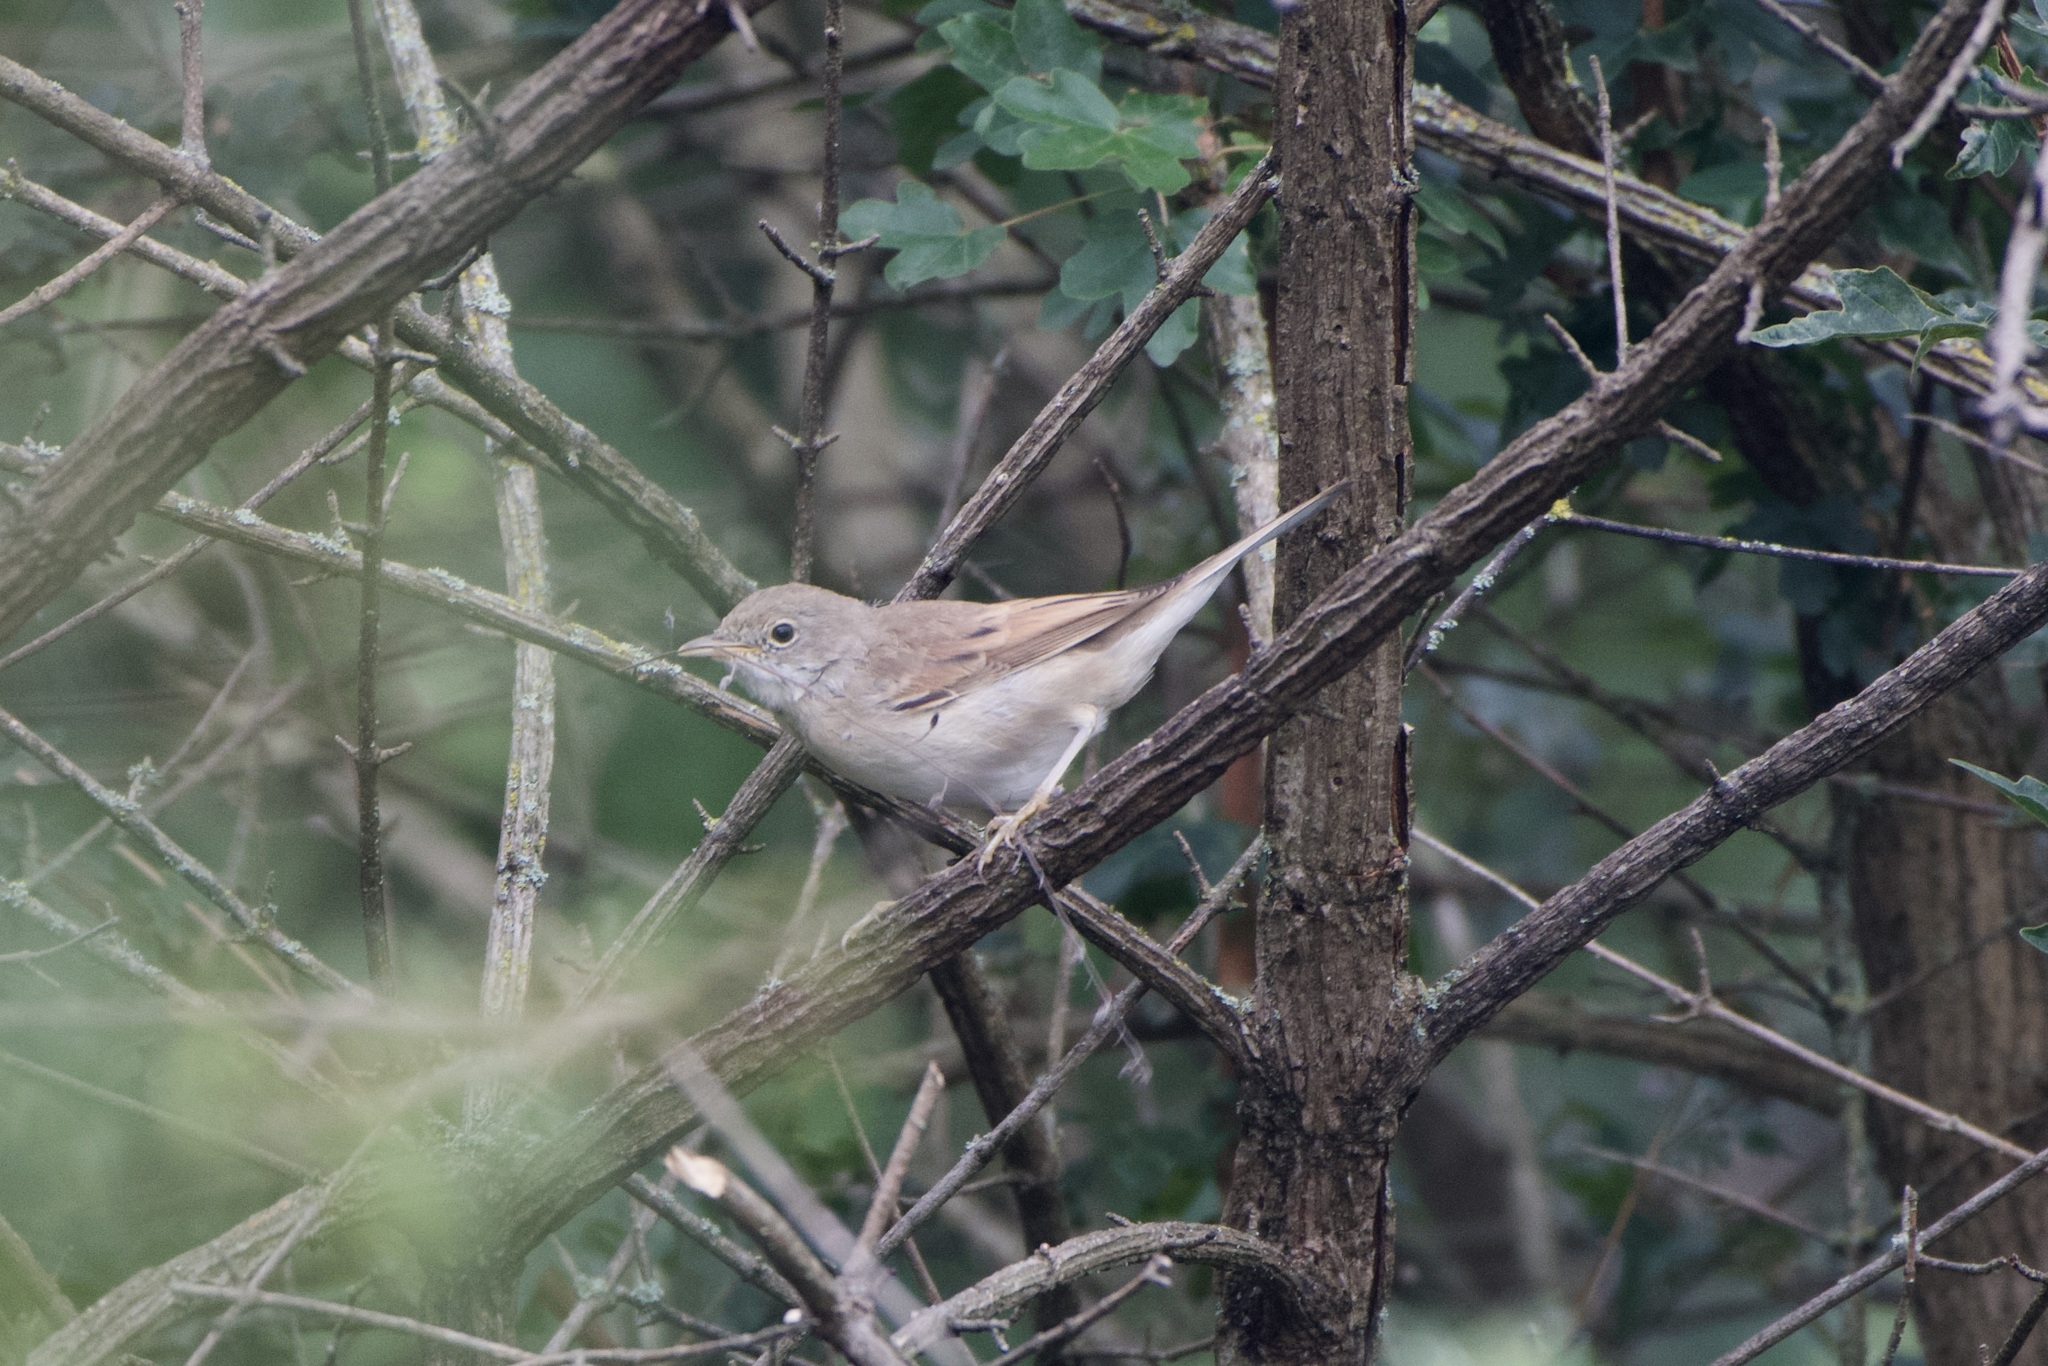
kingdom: Animalia
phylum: Chordata
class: Aves
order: Passeriformes
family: Sylviidae
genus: Sylvia
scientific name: Sylvia communis
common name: Common whitethroat
